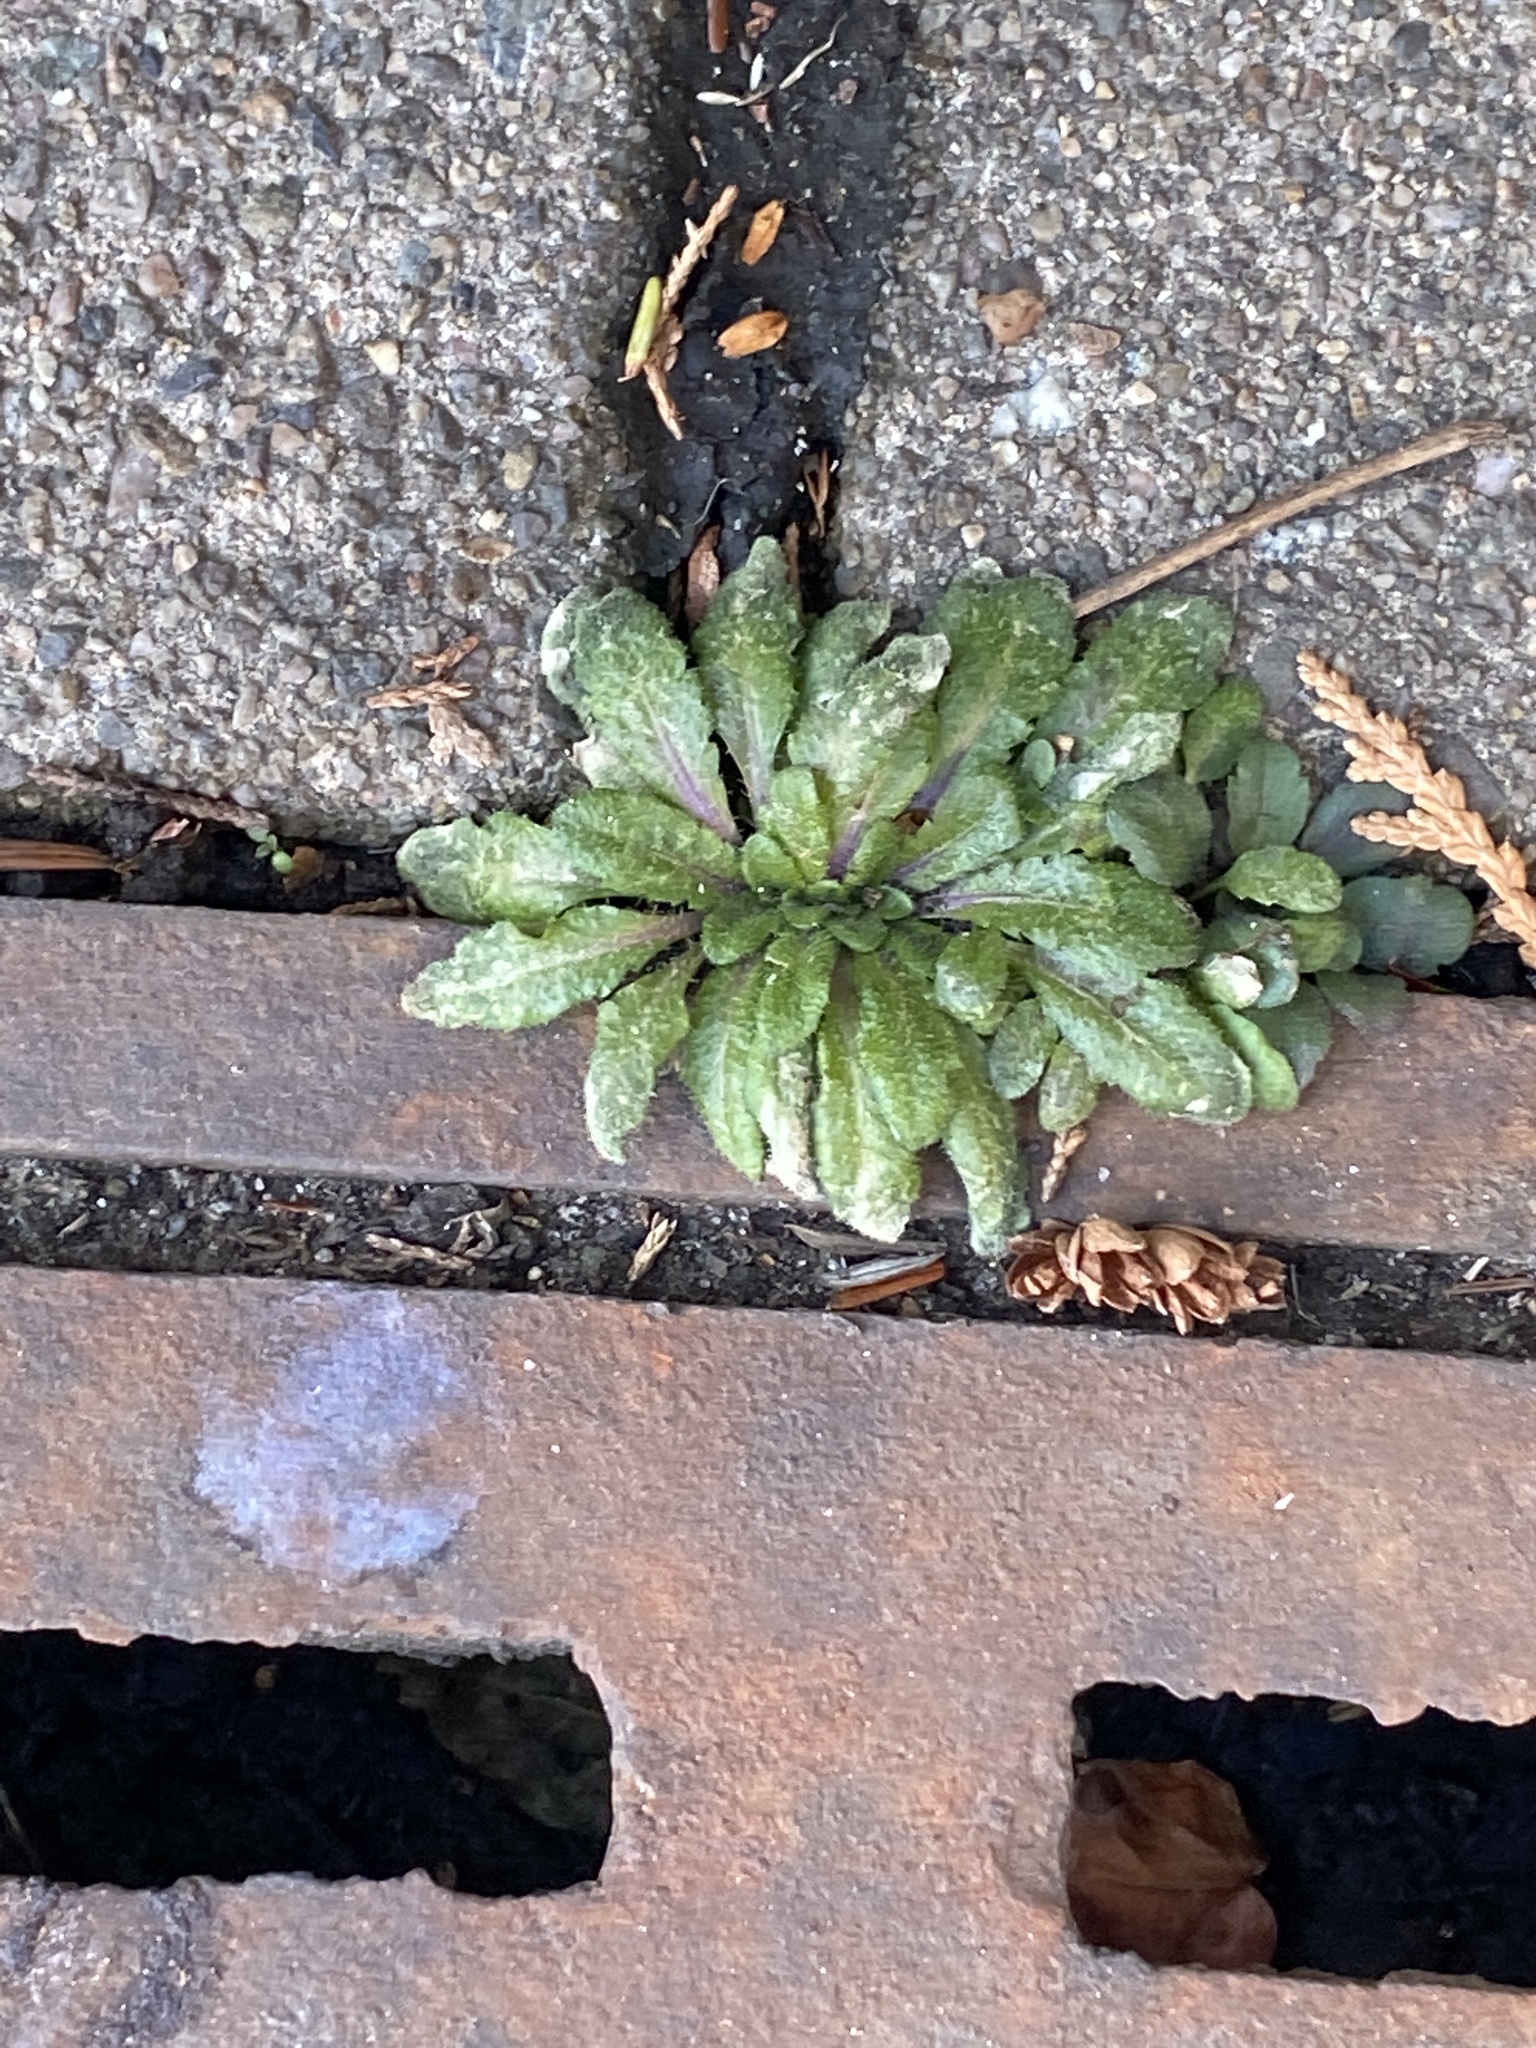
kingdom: Plantae
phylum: Tracheophyta
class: Magnoliopsida
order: Asterales
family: Asteraceae
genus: Erigeron
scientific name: Erigeron canadensis
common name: Canadian fleabane
